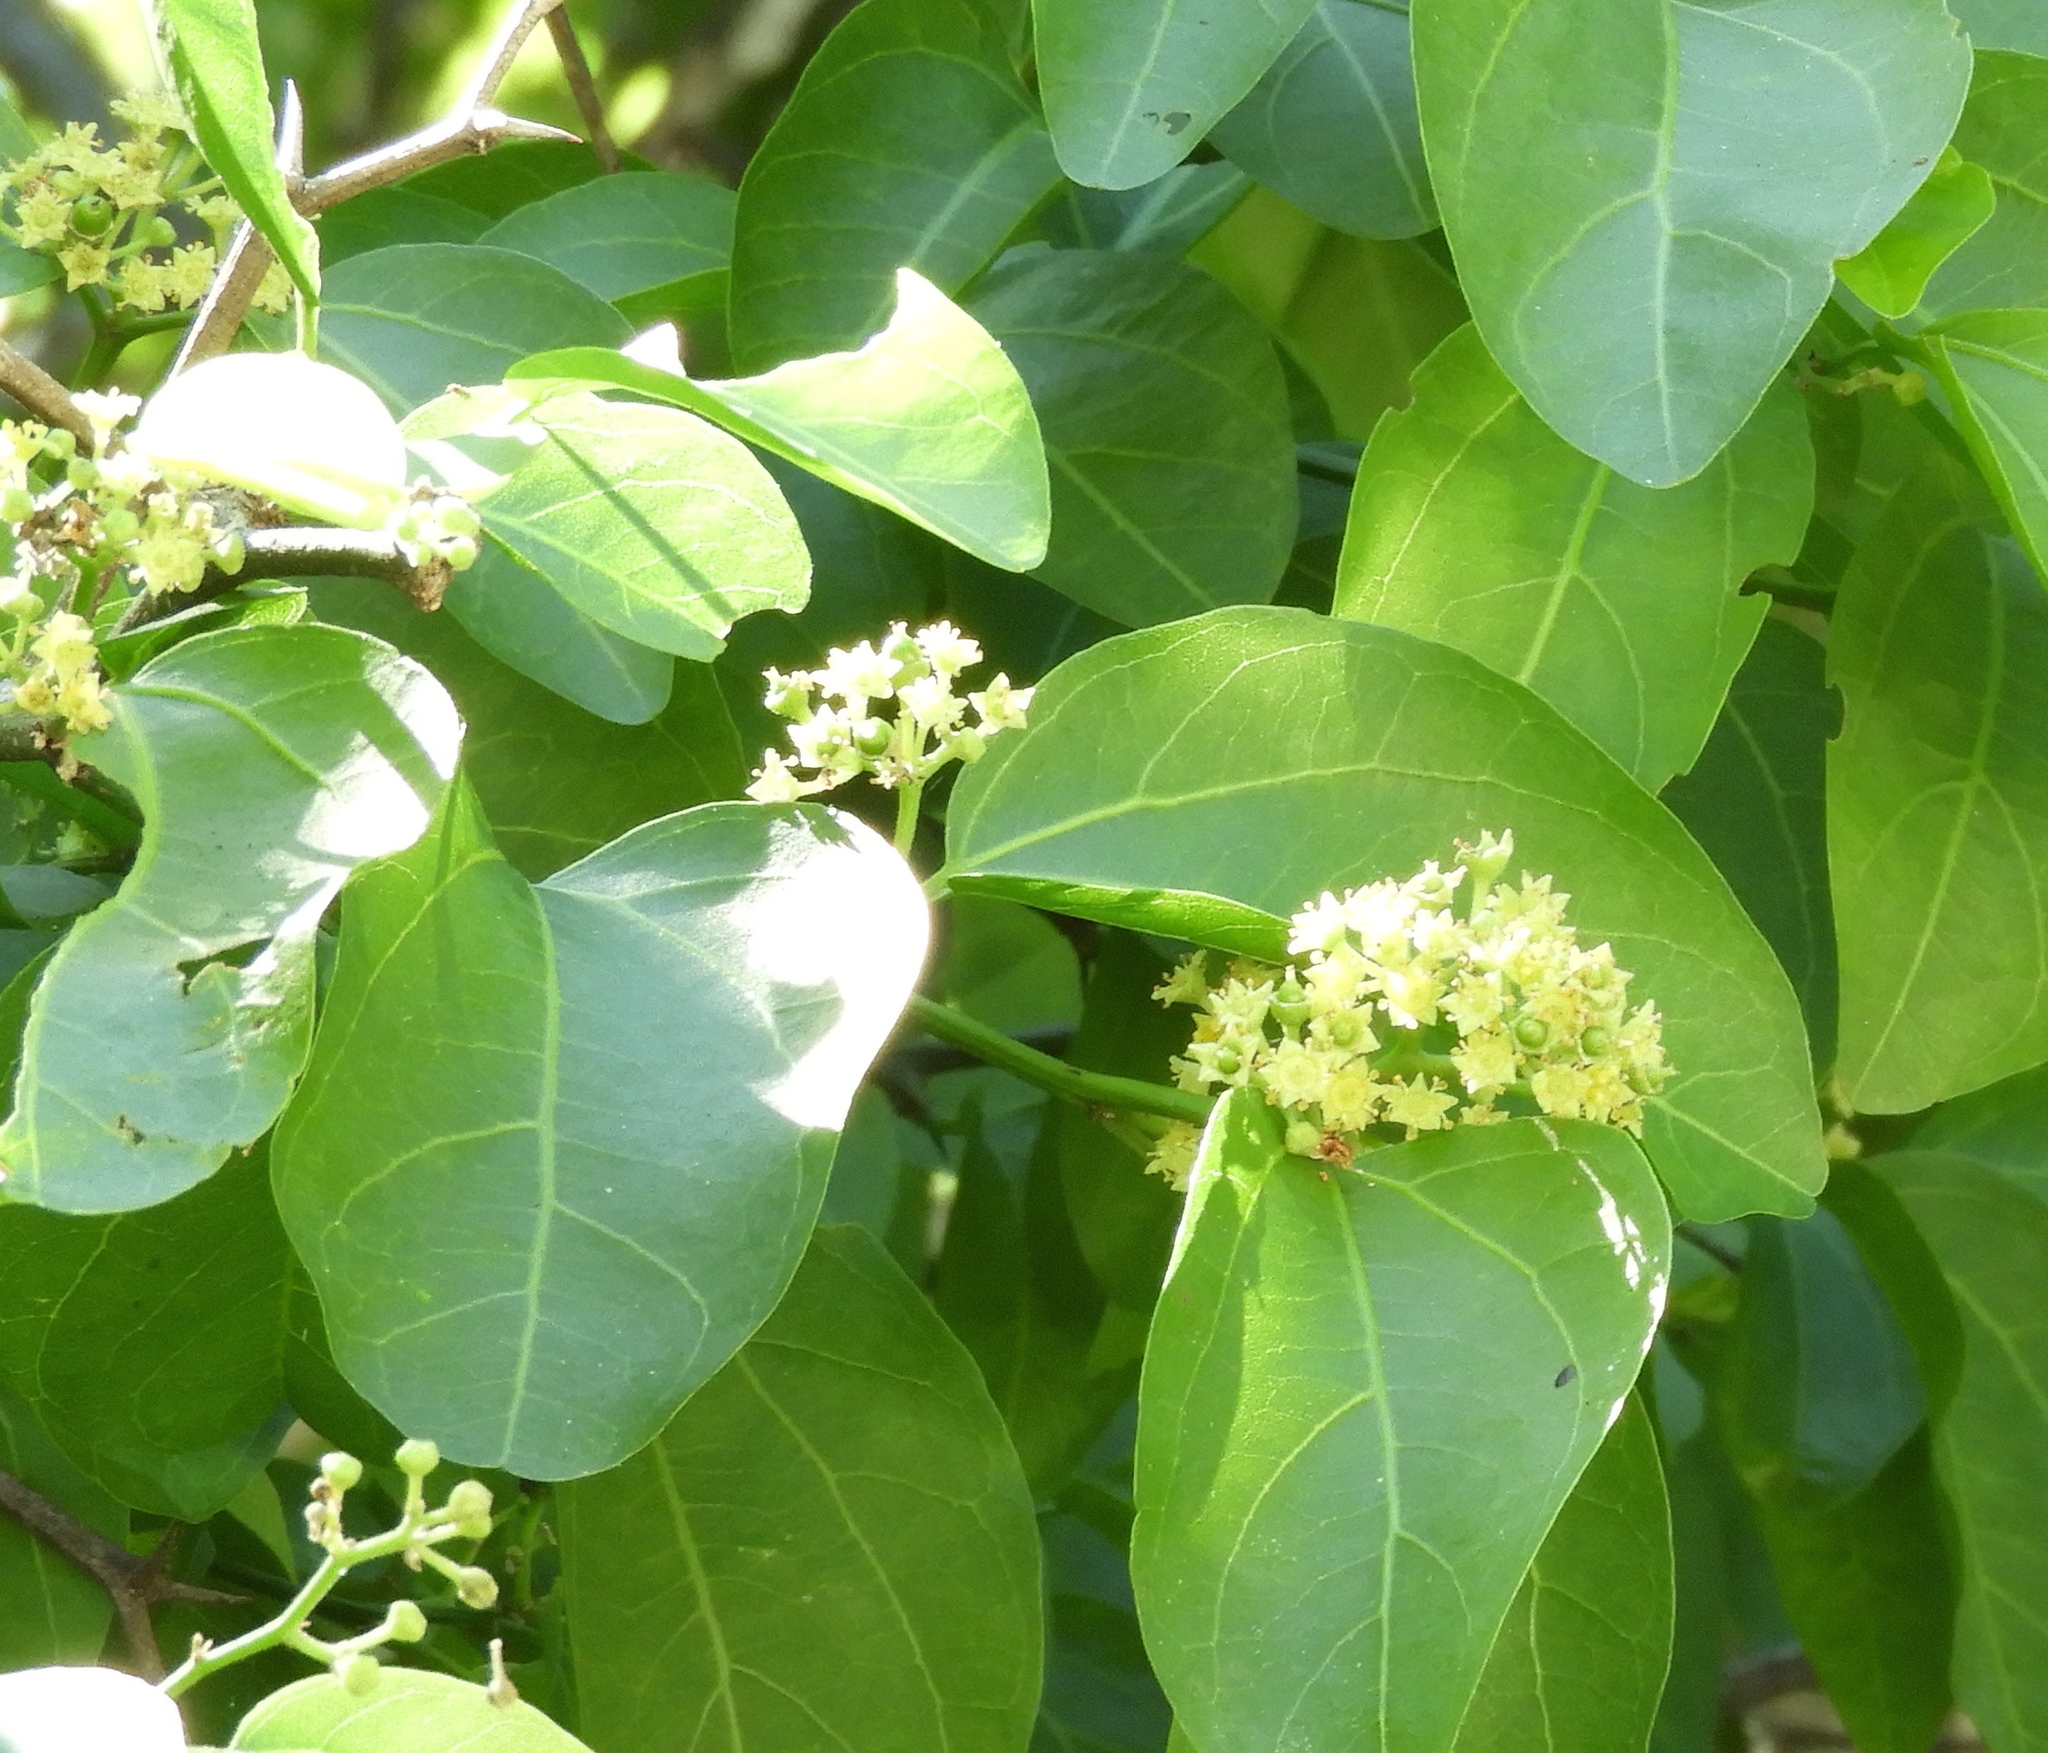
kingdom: Plantae
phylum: Tracheophyta
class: Magnoliopsida
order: Rosales
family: Rhamnaceae
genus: Sarcomphalus
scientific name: Sarcomphalus amole
